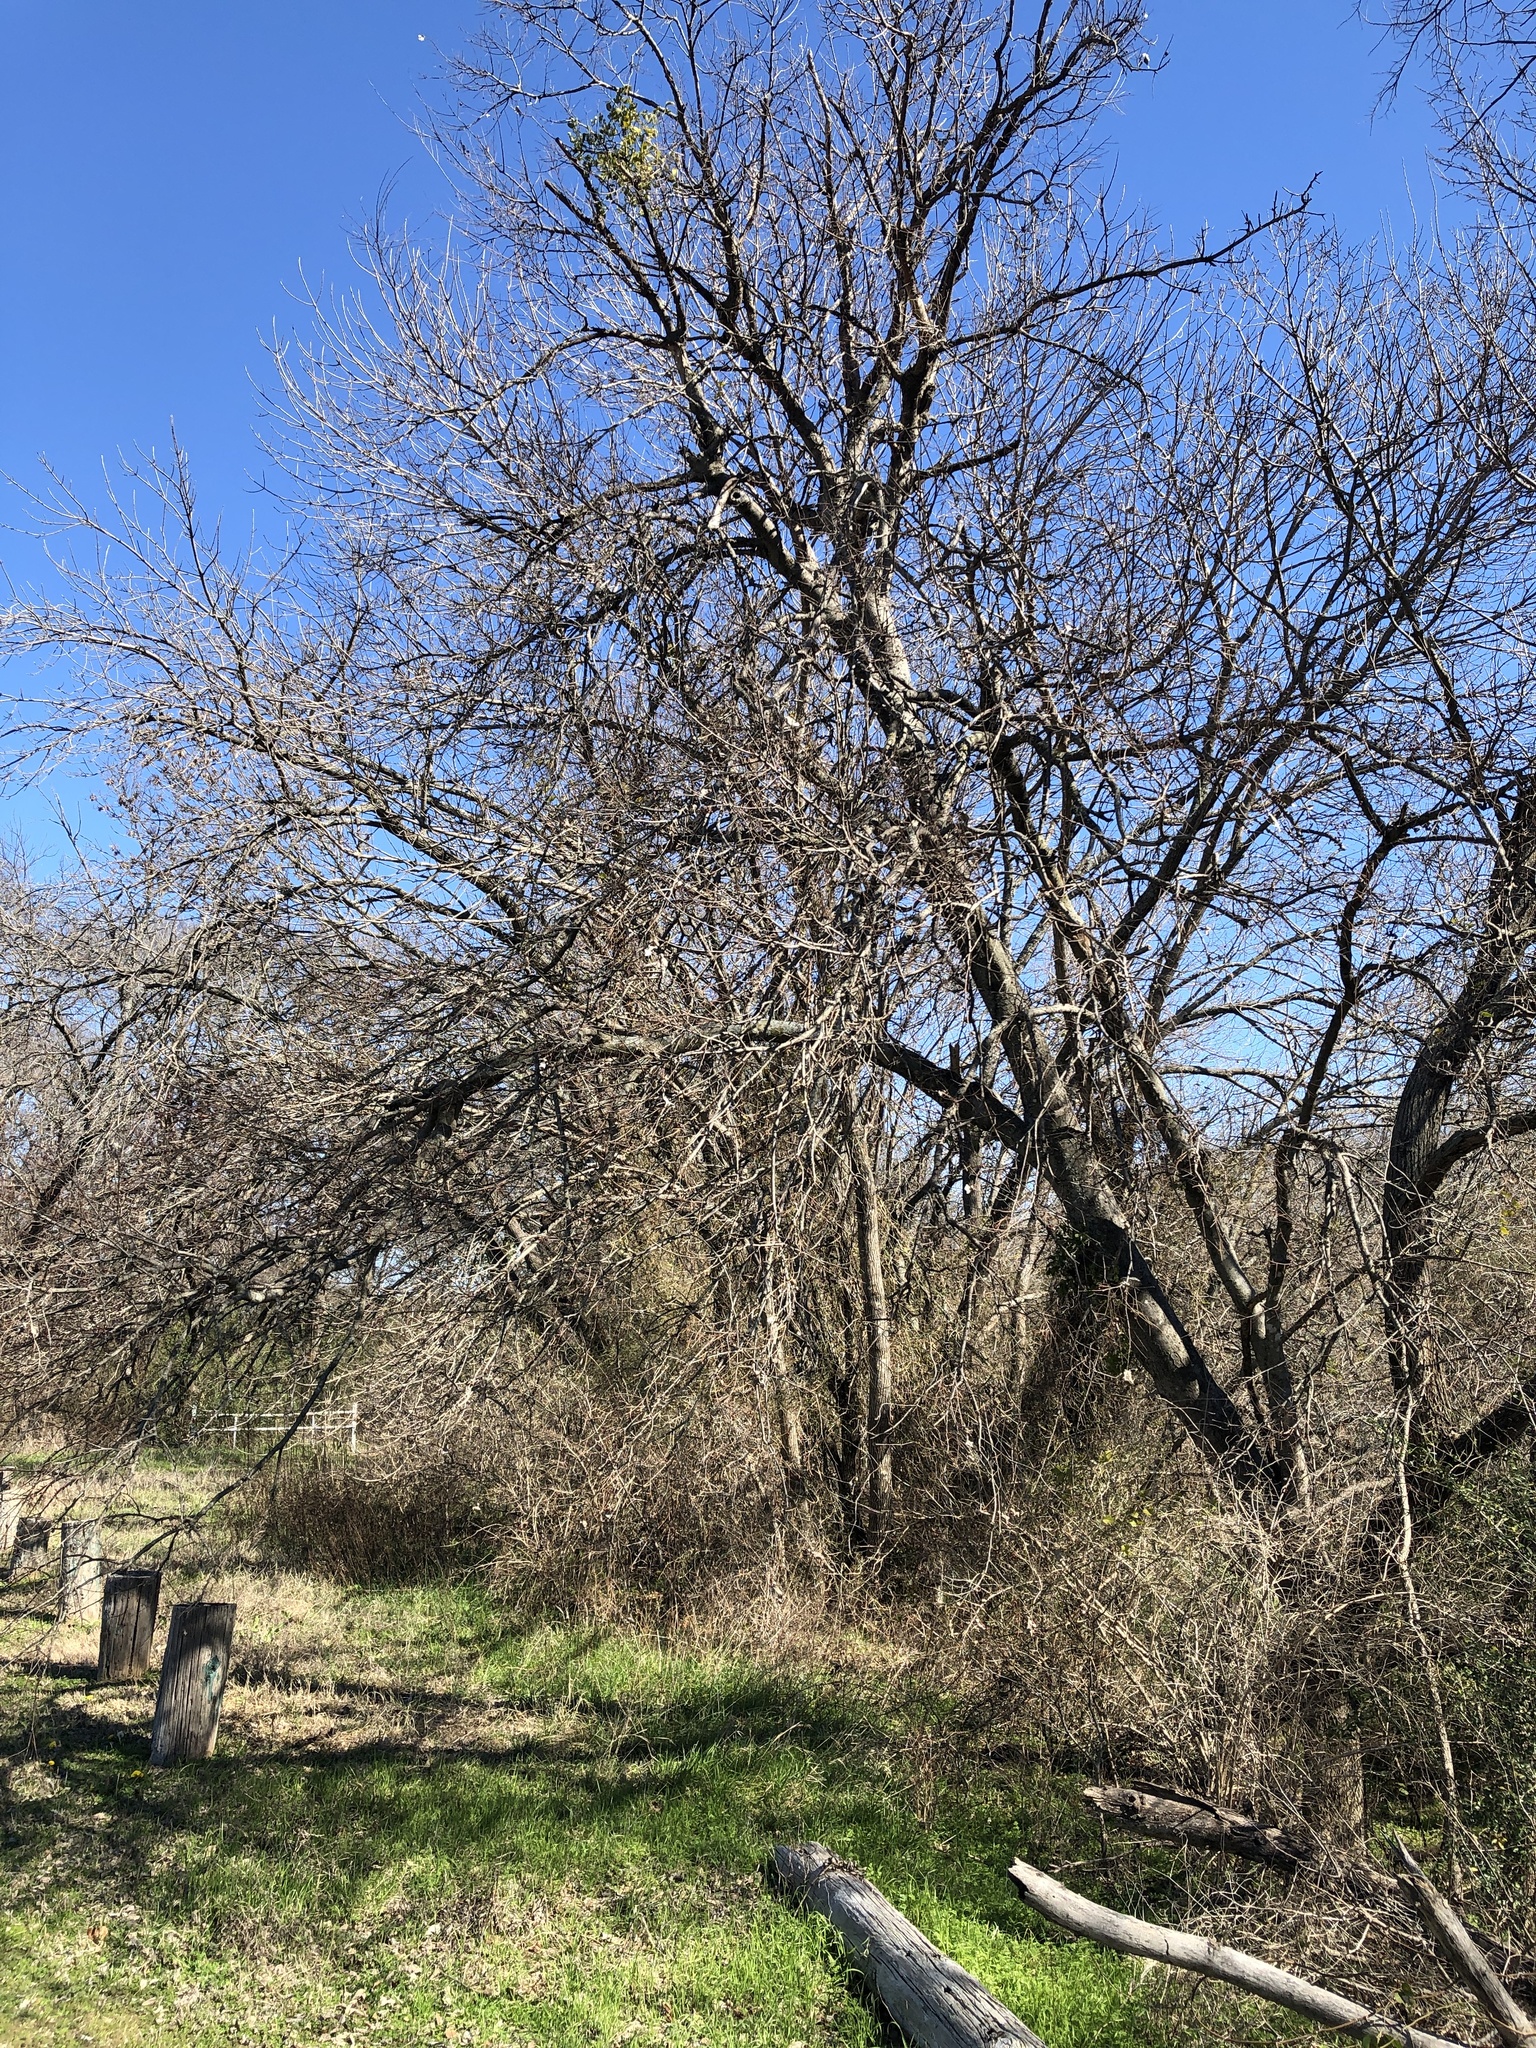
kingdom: Plantae
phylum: Tracheophyta
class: Magnoliopsida
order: Rosales
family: Cannabaceae
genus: Celtis
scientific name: Celtis laevigata
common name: Sugarberry
